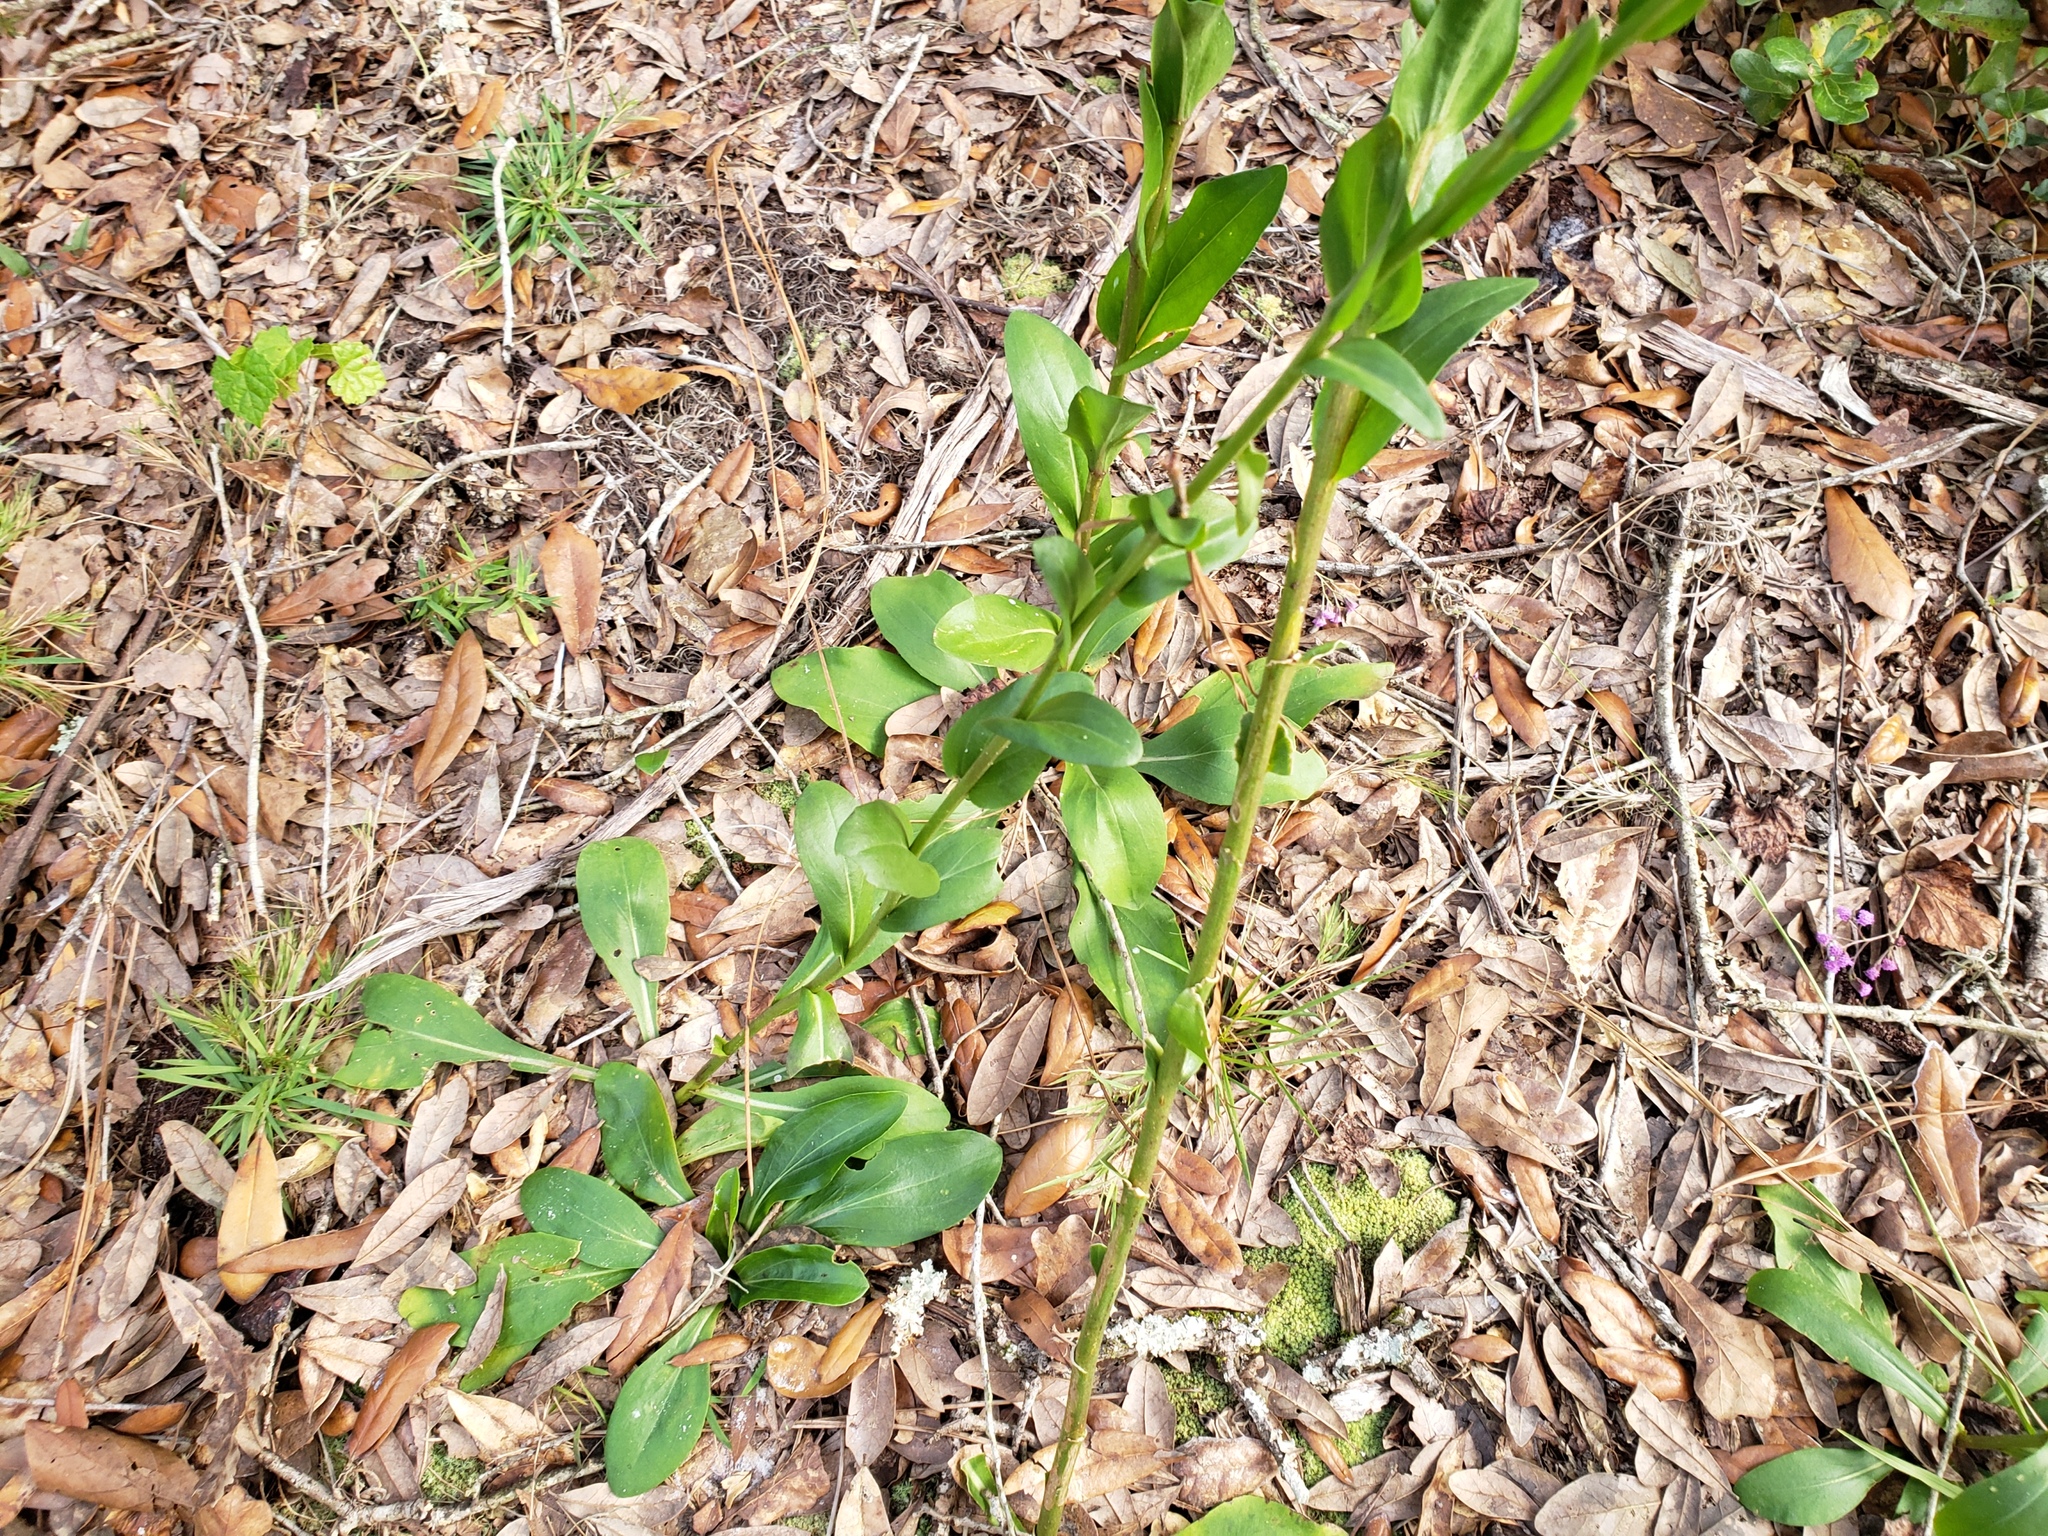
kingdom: Plantae
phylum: Tracheophyta
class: Magnoliopsida
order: Asterales
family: Asteraceae
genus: Carphephorus
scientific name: Carphephorus odoratissimus
